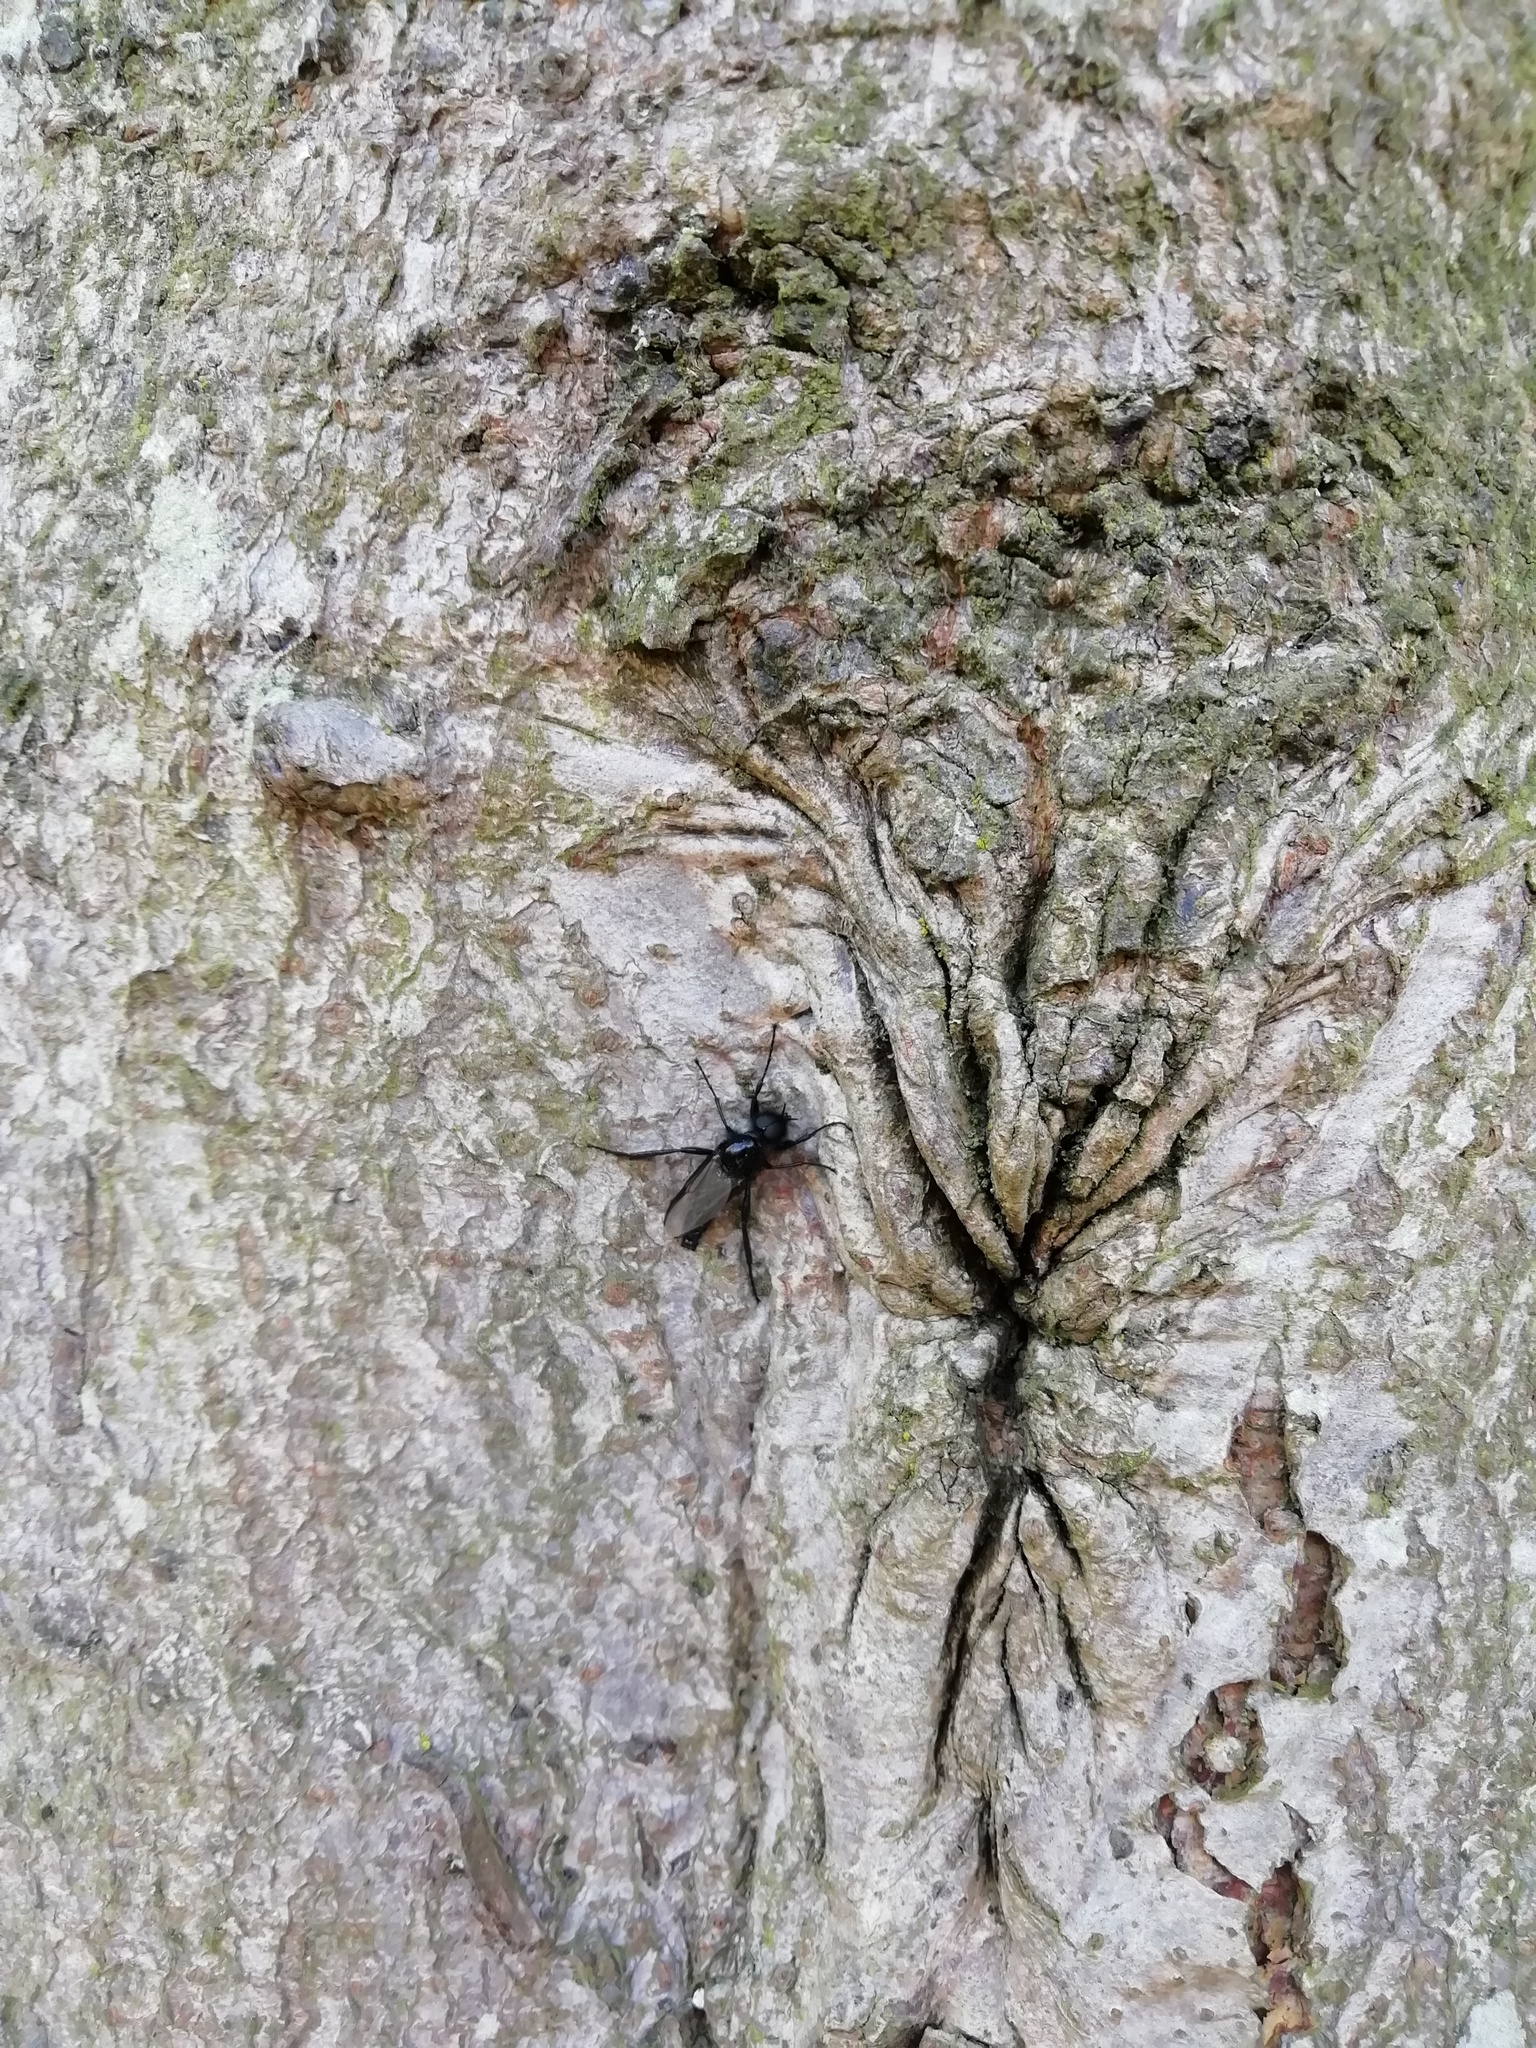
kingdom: Animalia
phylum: Arthropoda
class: Insecta
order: Diptera
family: Bibionidae
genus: Bibio
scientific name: Bibio marci
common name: St marks fly
